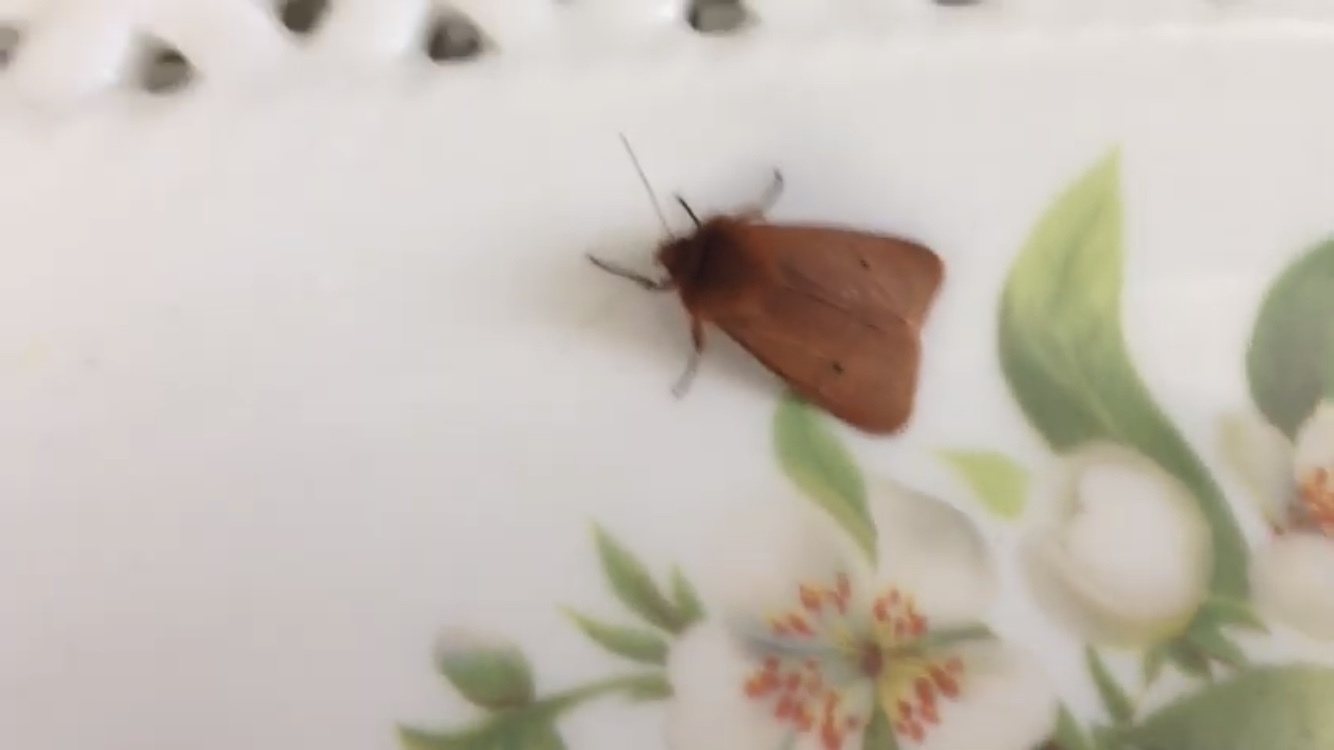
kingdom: Animalia
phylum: Arthropoda
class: Insecta
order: Lepidoptera
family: Erebidae
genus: Phragmatobia
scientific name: Phragmatobia fuliginosa
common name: Ruby tiger
